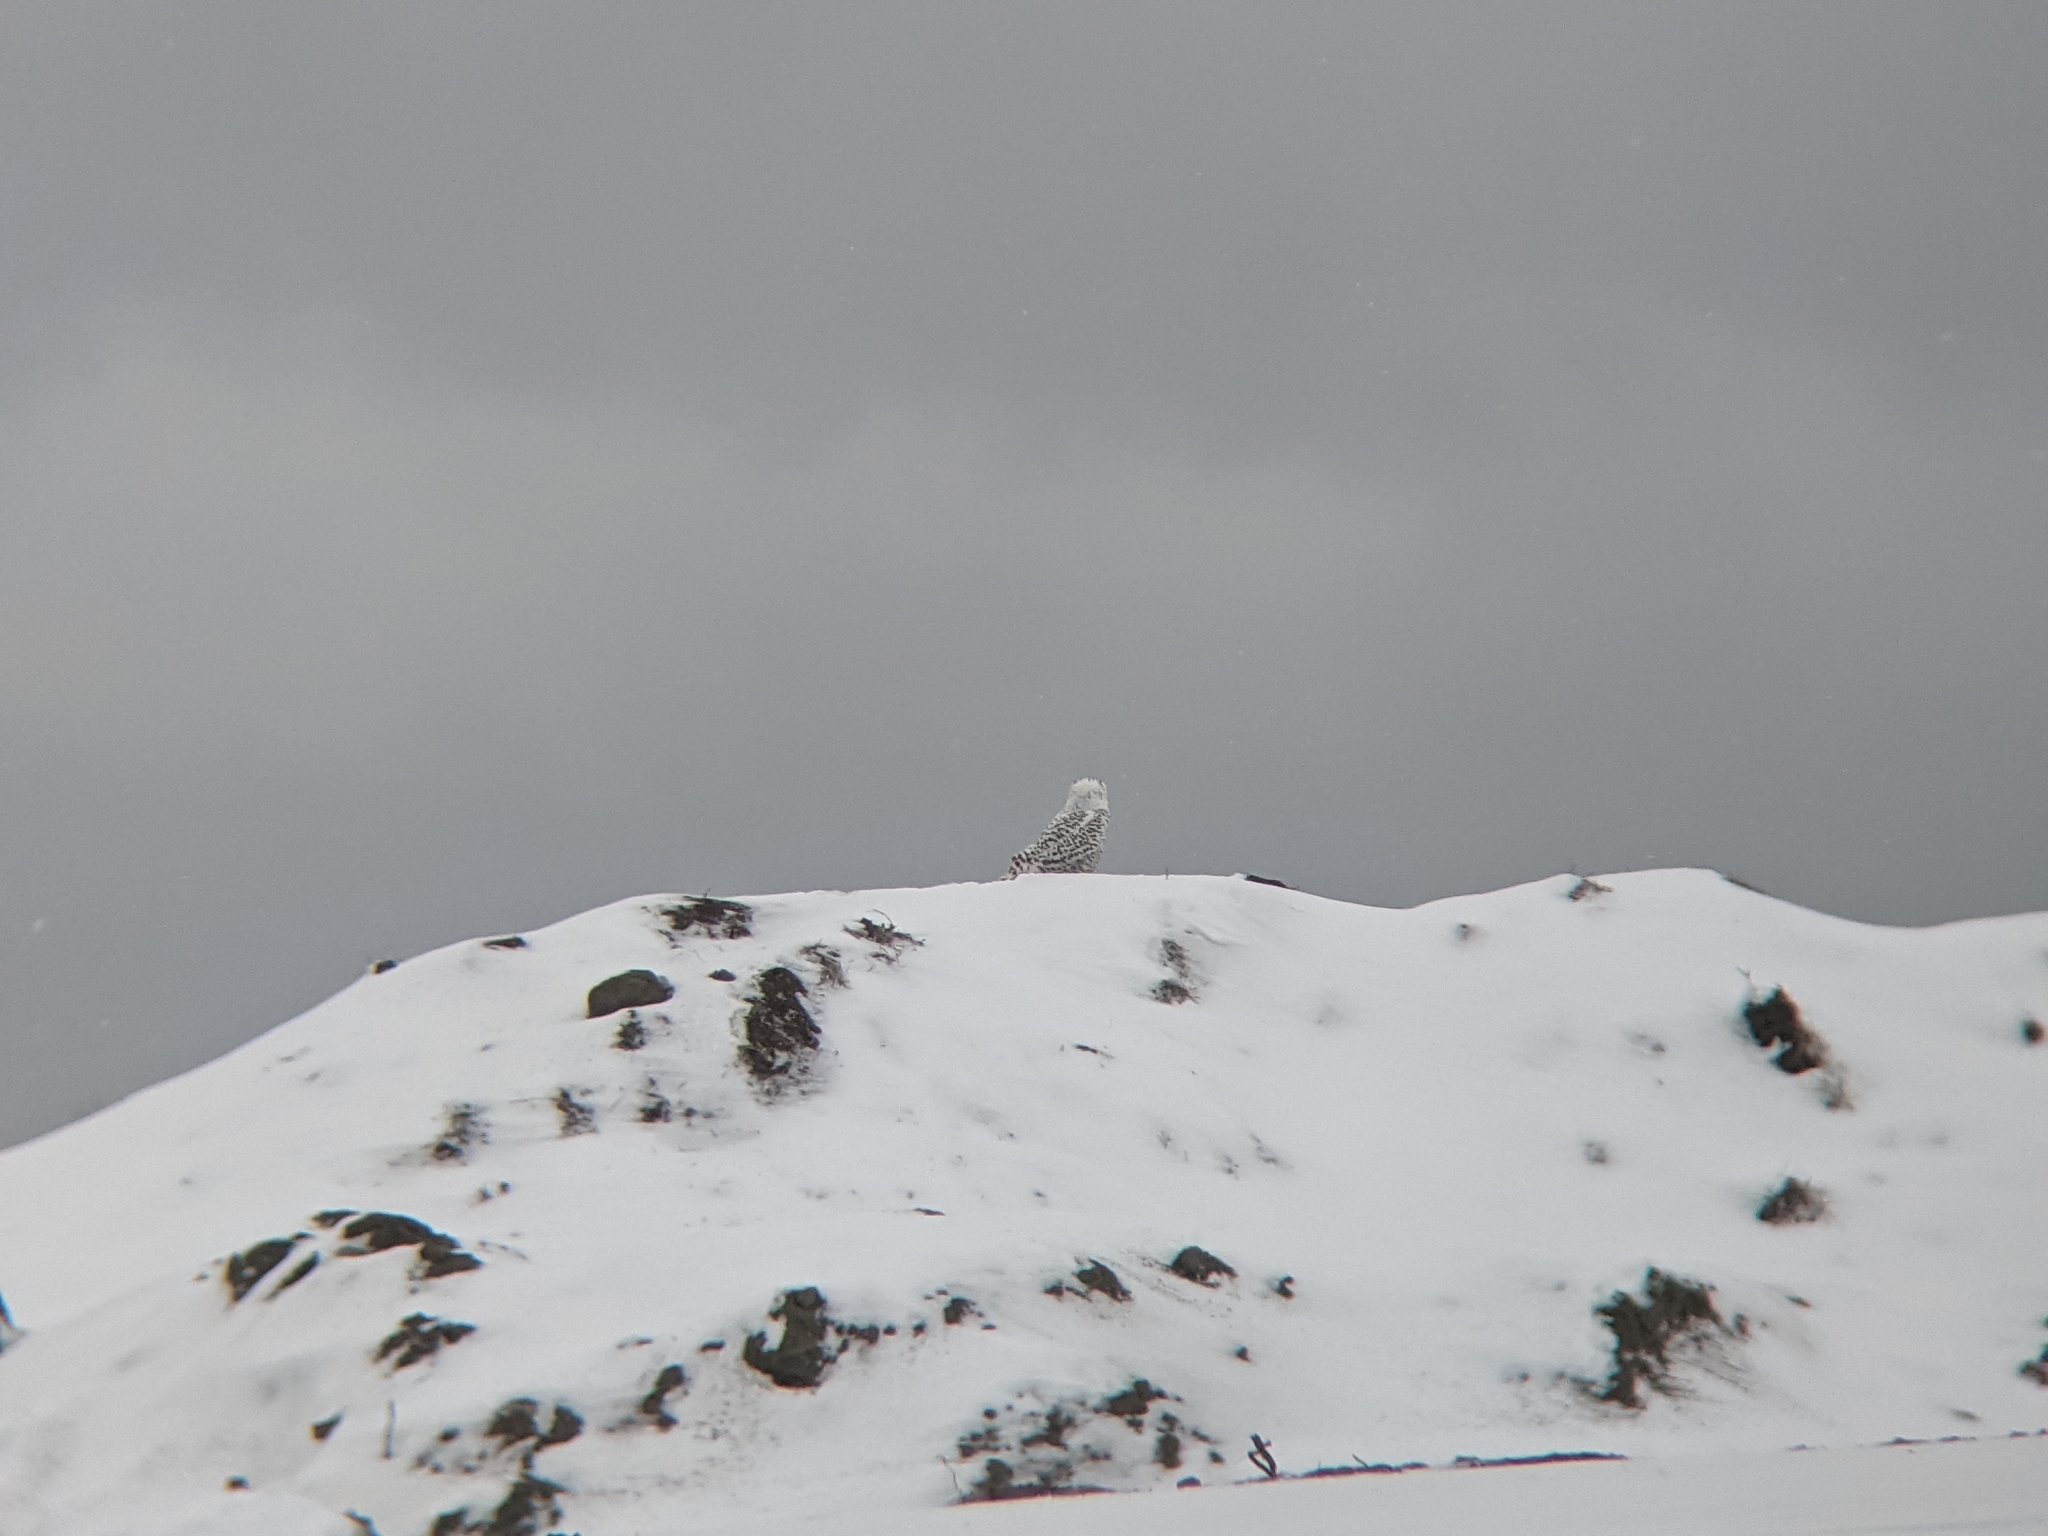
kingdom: Animalia
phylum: Chordata
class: Aves
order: Strigiformes
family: Strigidae
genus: Bubo
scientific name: Bubo scandiacus
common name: Snowy owl
